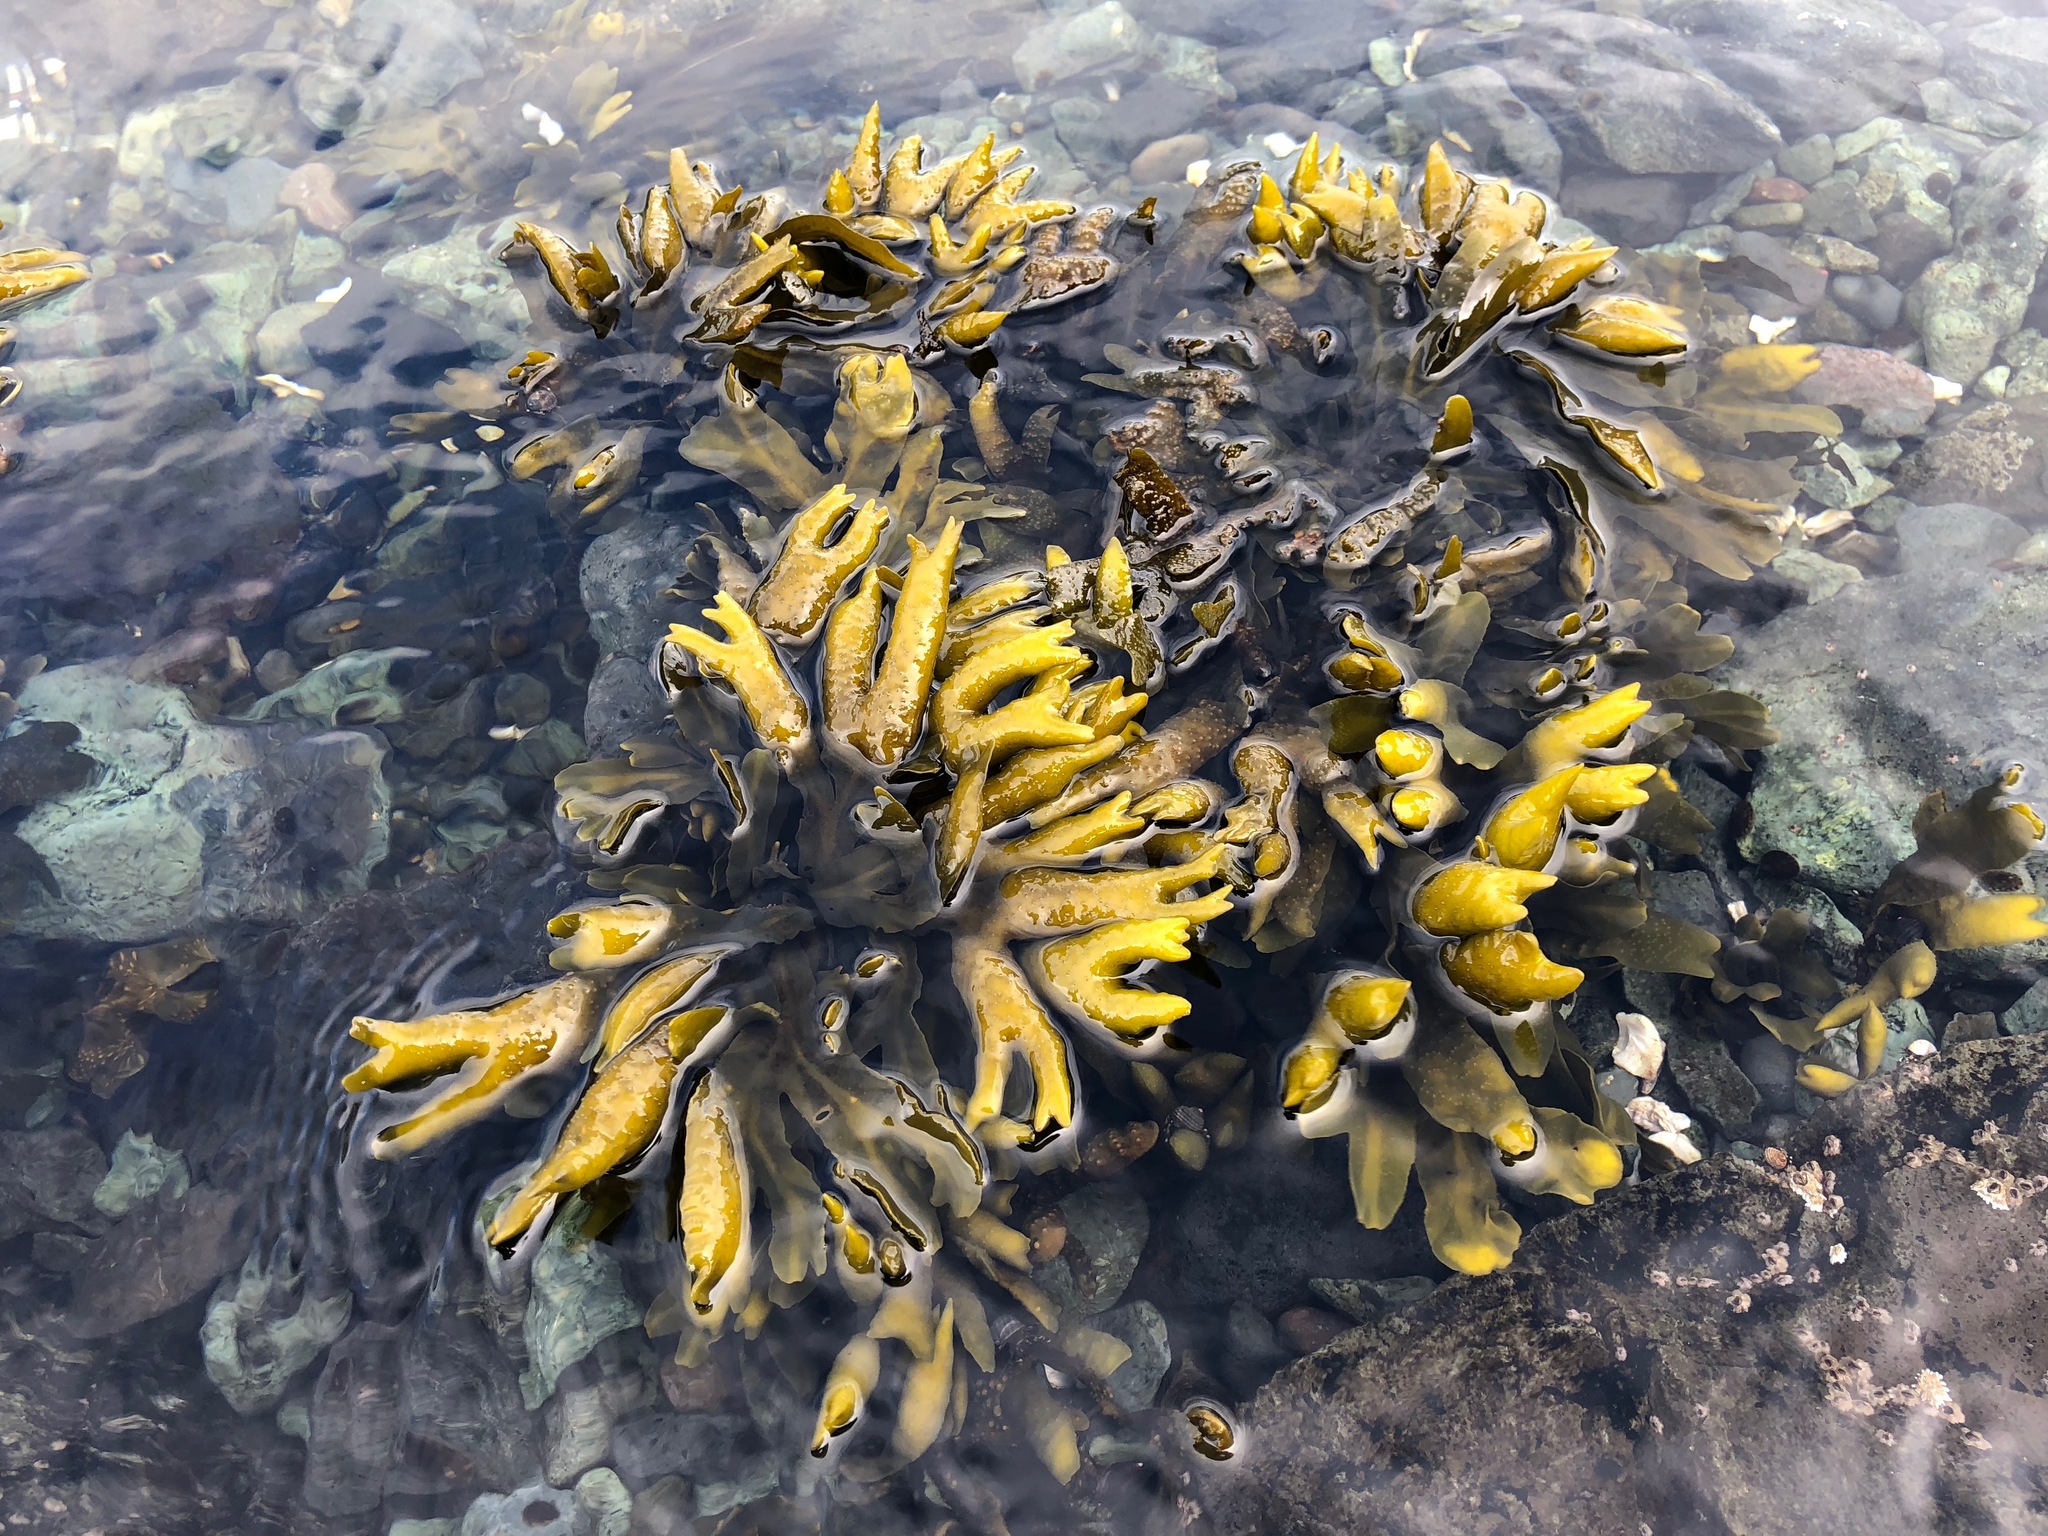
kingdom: Chromista
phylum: Ochrophyta
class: Phaeophyceae
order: Fucales
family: Fucaceae
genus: Fucus
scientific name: Fucus distichus
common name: Rockweed
